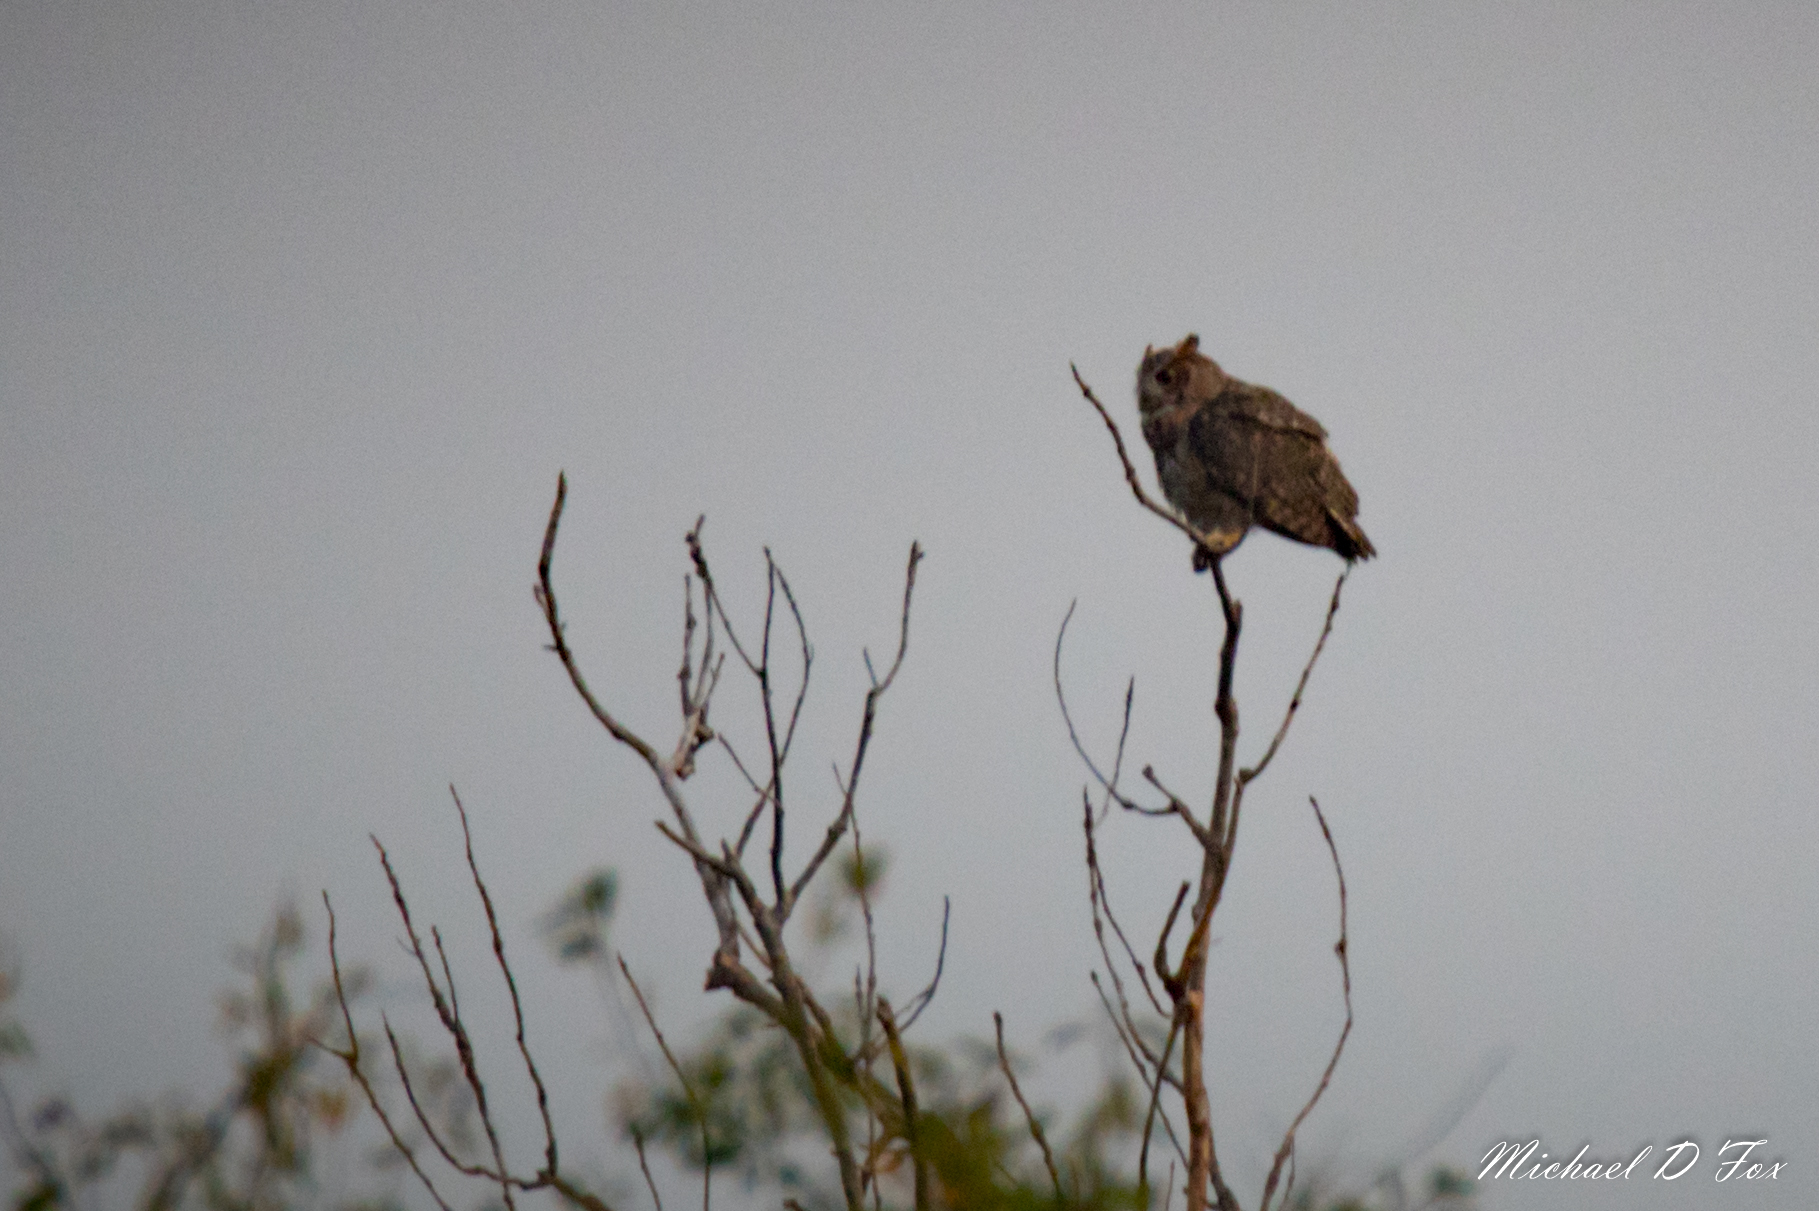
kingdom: Animalia
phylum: Chordata
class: Aves
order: Strigiformes
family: Strigidae
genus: Bubo
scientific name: Bubo virginianus
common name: Great horned owl
